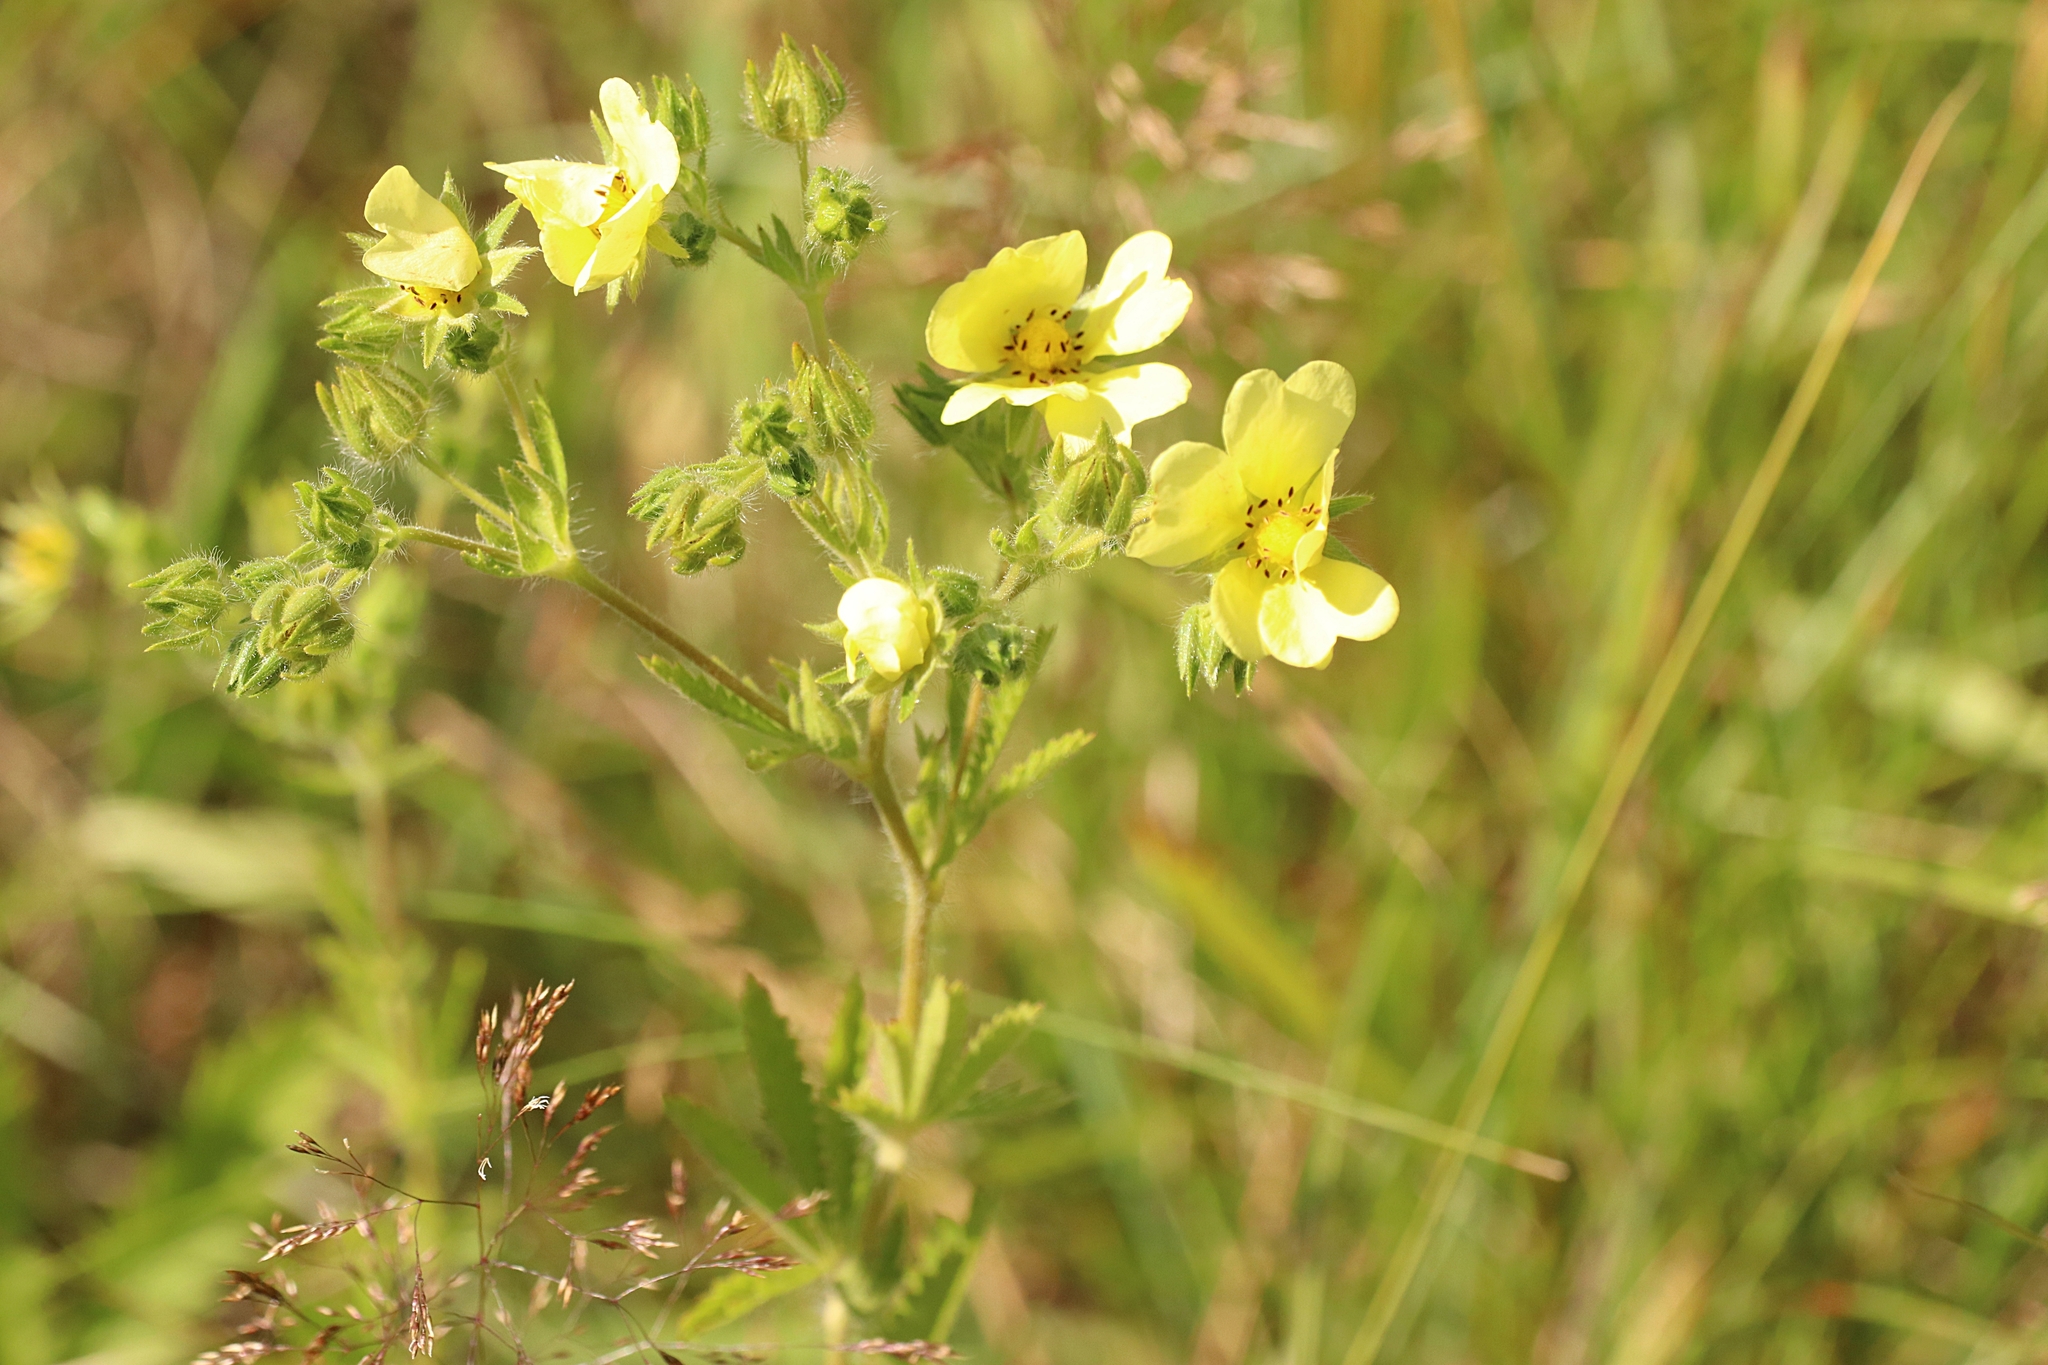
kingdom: Plantae
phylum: Tracheophyta
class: Magnoliopsida
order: Rosales
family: Rosaceae
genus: Potentilla
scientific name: Potentilla recta
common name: Sulphur cinquefoil
